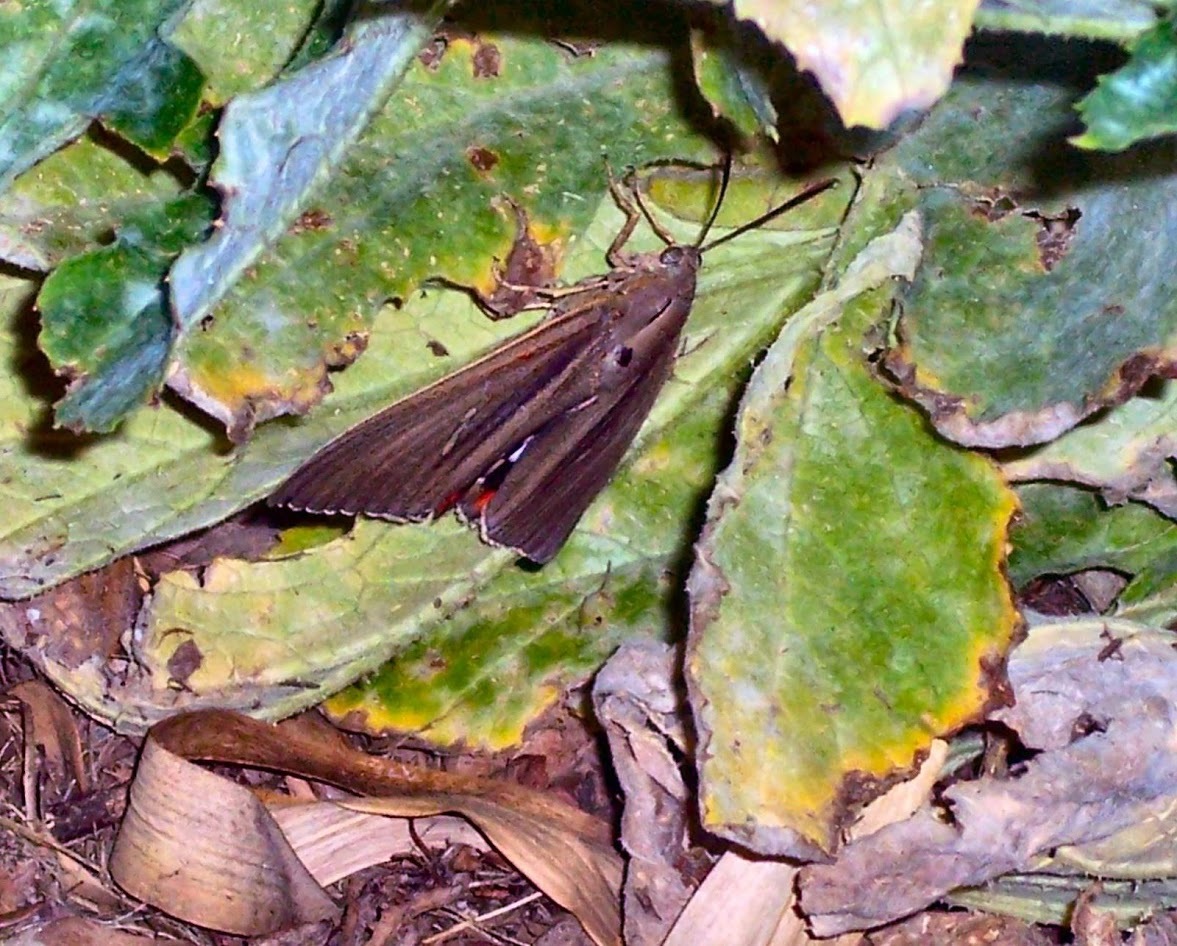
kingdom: Animalia
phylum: Arthropoda
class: Insecta
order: Lepidoptera
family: Castniidae
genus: Paysandisia
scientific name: Paysandisia archon
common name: Palm moth
